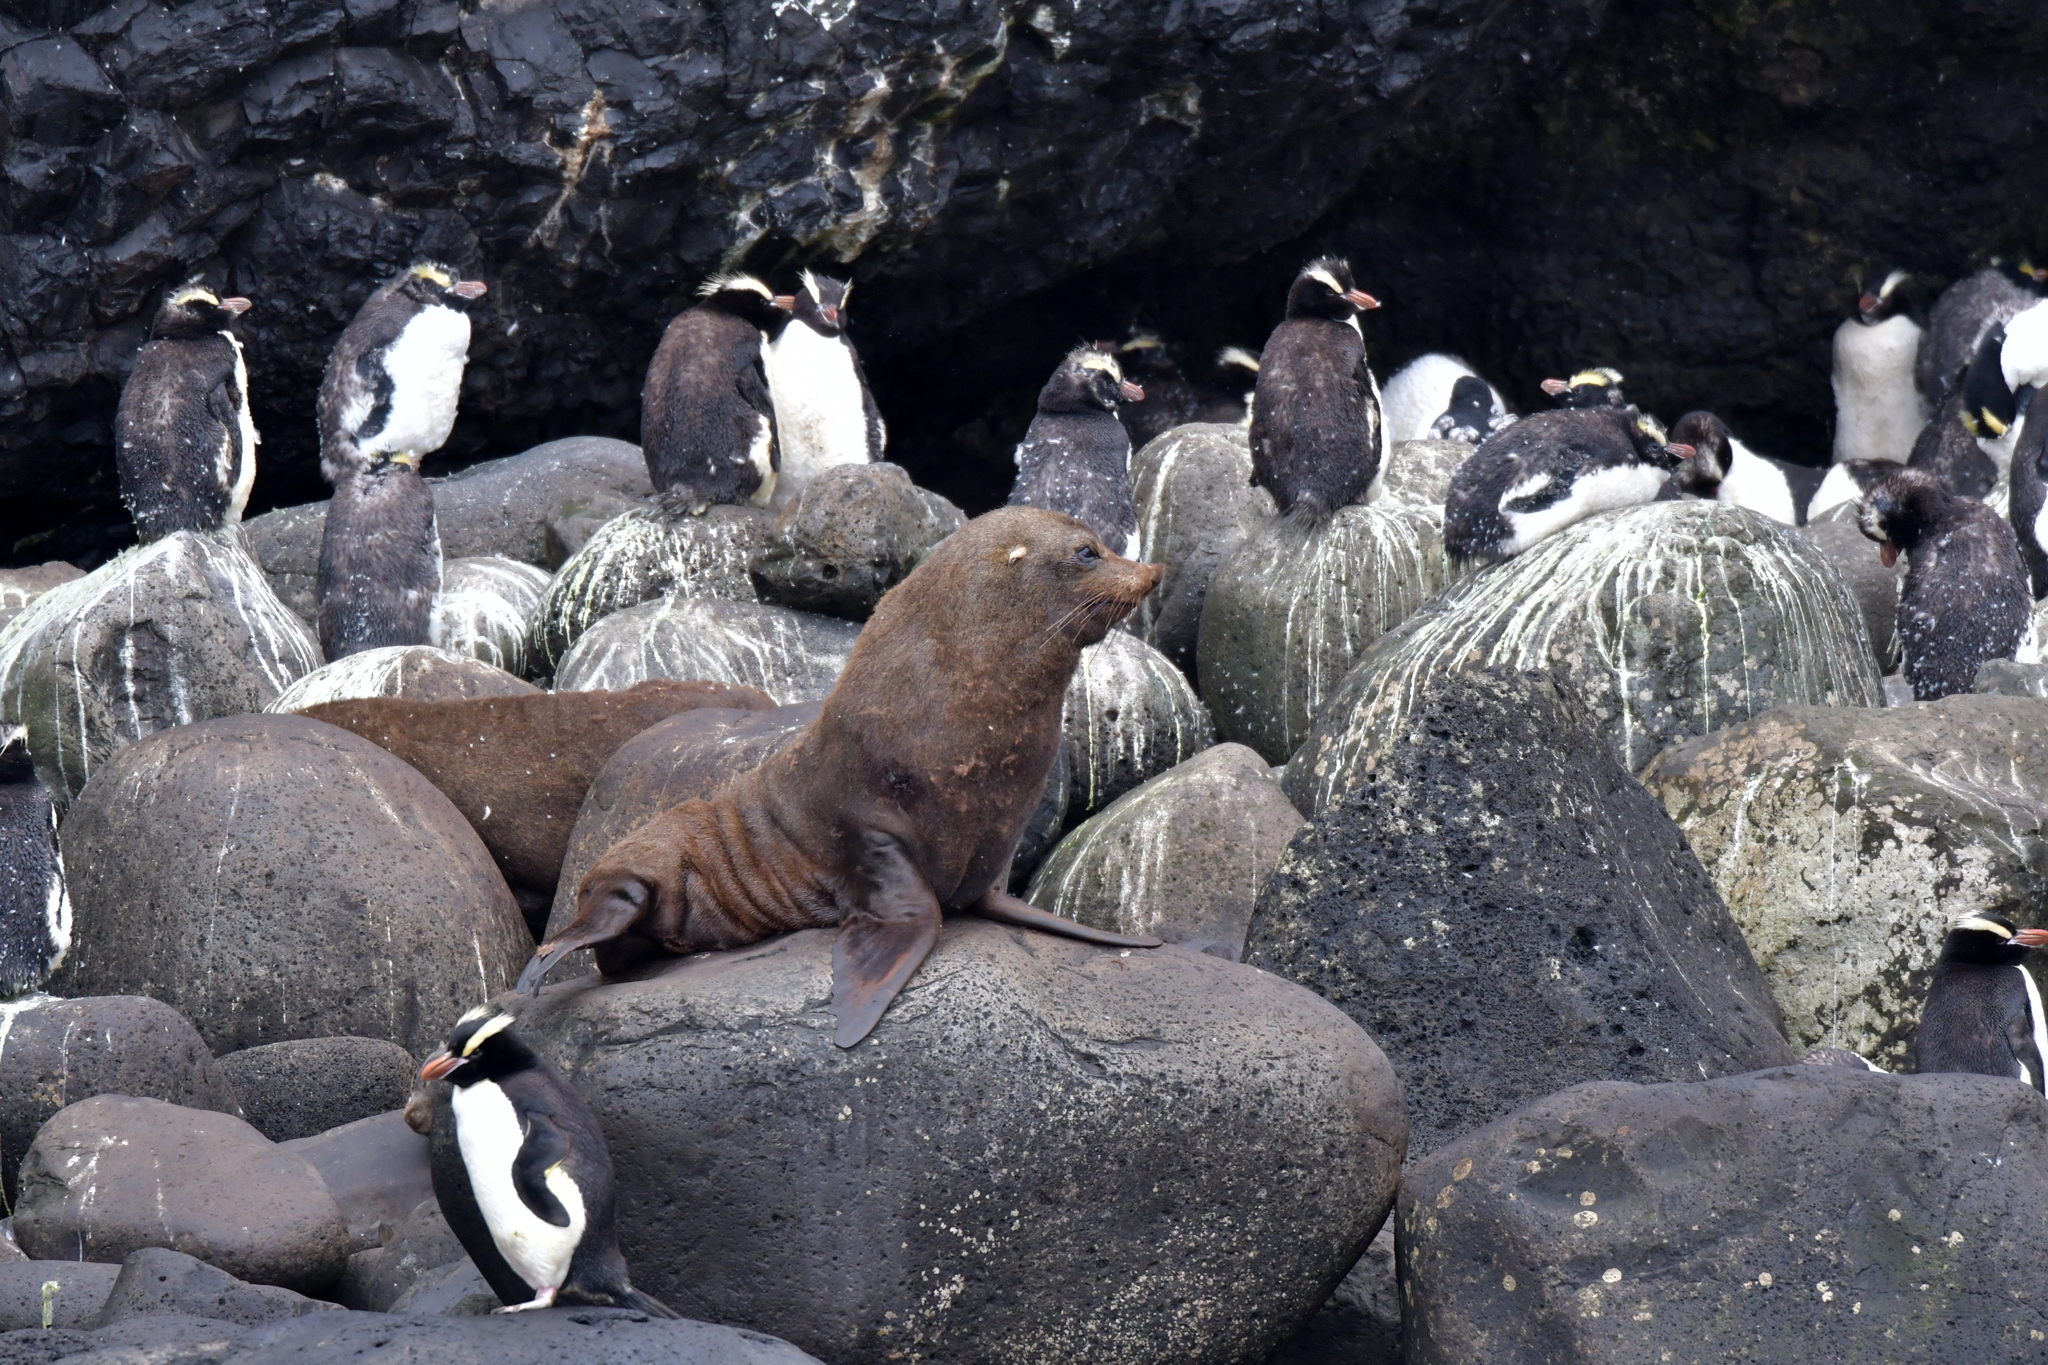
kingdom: Animalia
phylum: Chordata
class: Mammalia
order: Carnivora
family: Otariidae
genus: Arctocephalus
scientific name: Arctocephalus forsteri
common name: New zealand fur seal
